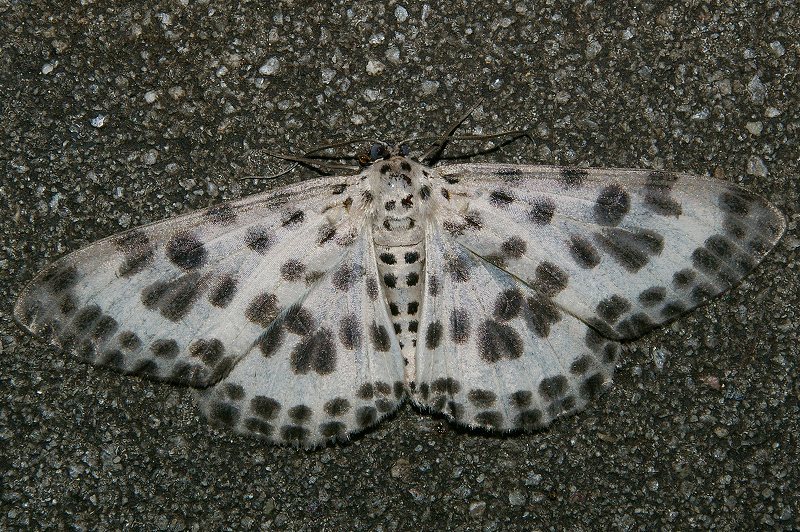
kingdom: Animalia
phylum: Arthropoda
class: Insecta
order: Lepidoptera
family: Geometridae
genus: Antipercnia
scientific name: Antipercnia albinigrata
